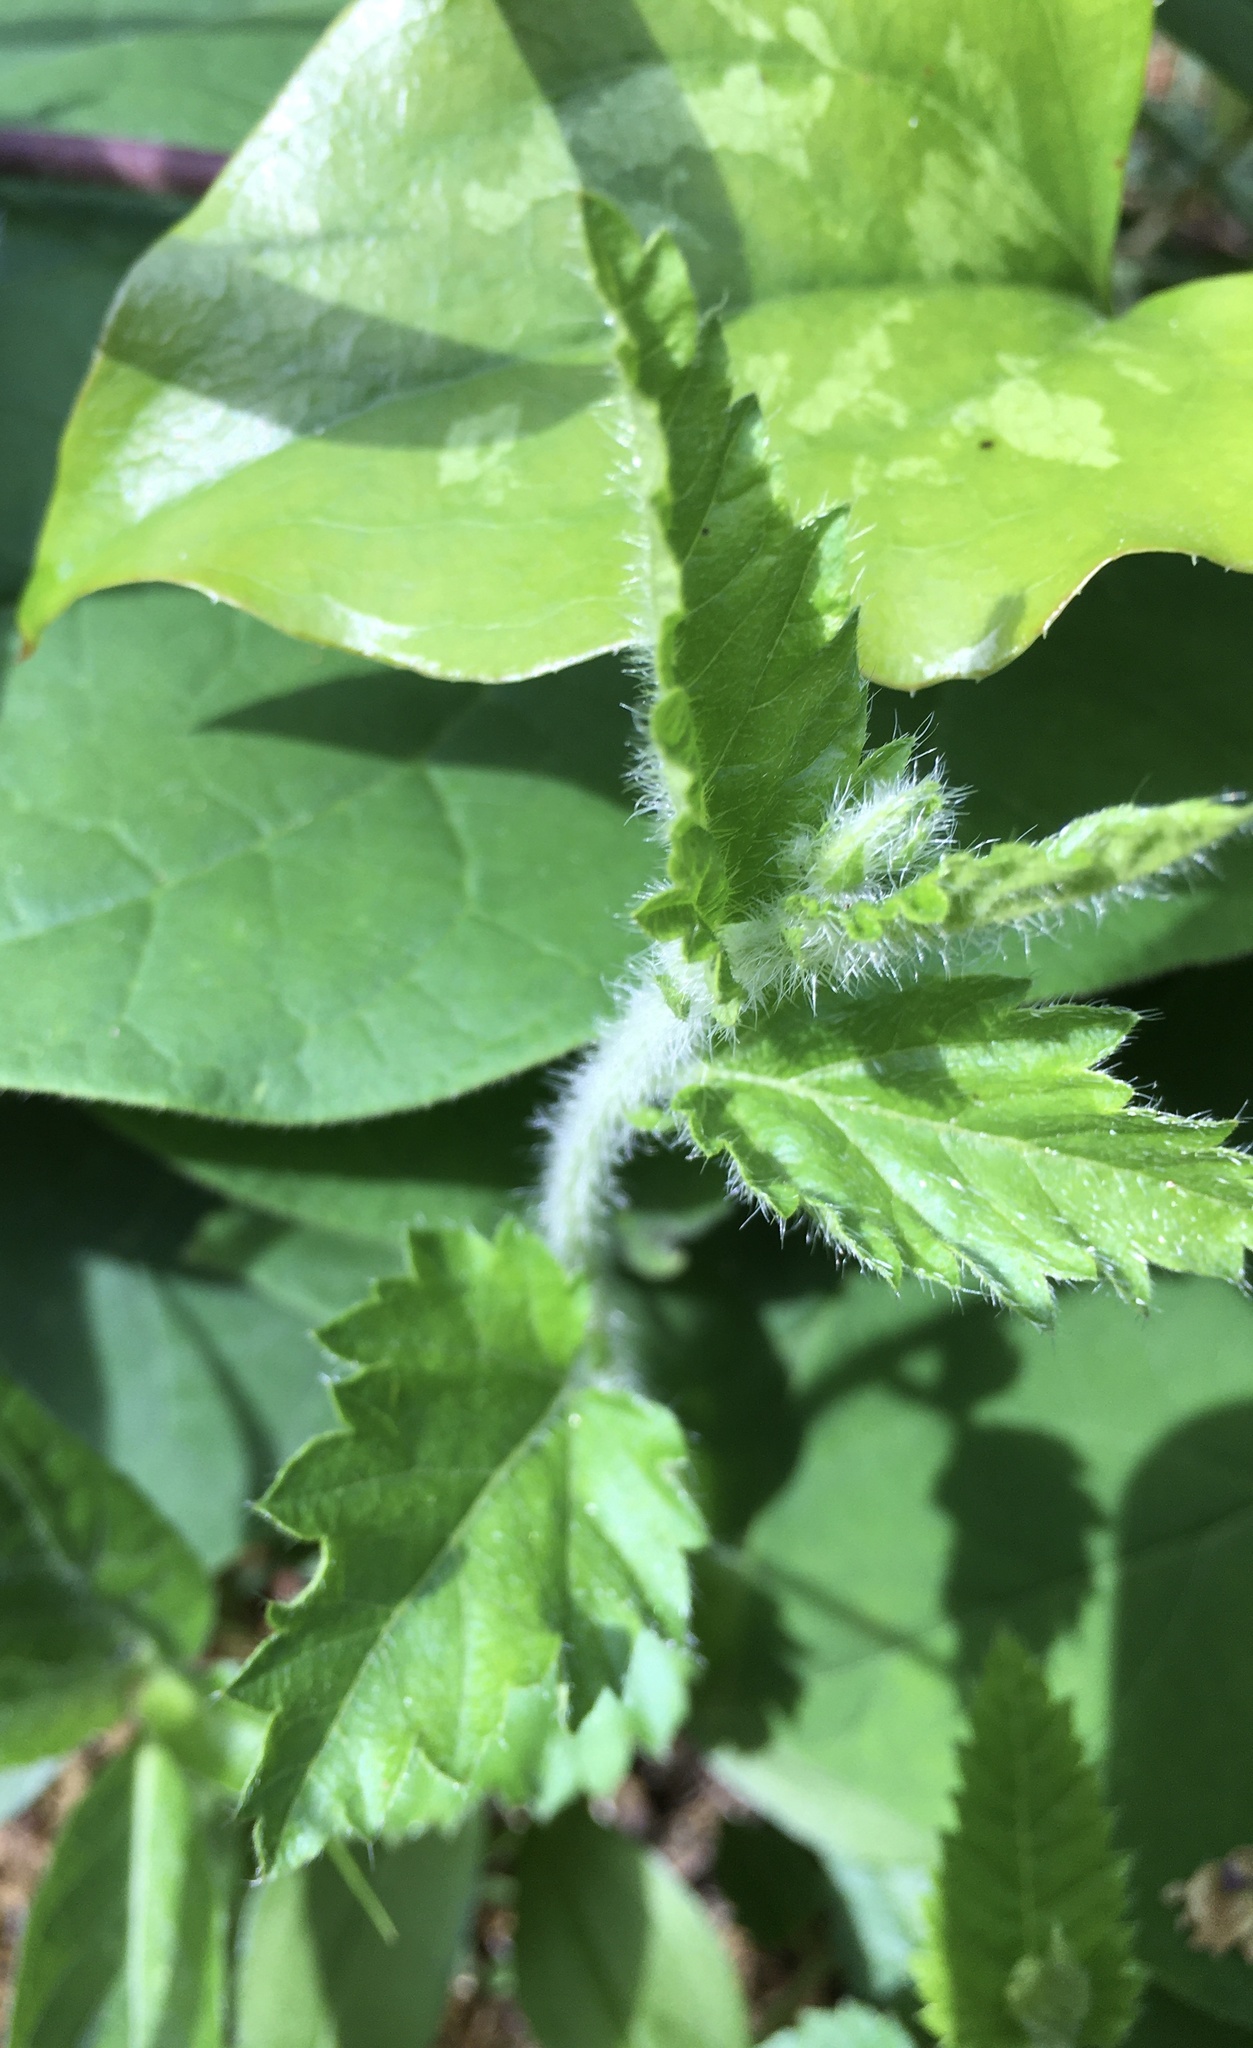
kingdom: Plantae
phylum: Tracheophyta
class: Magnoliopsida
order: Malpighiales
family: Euphorbiaceae
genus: Tragia
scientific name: Tragia urticifolia
